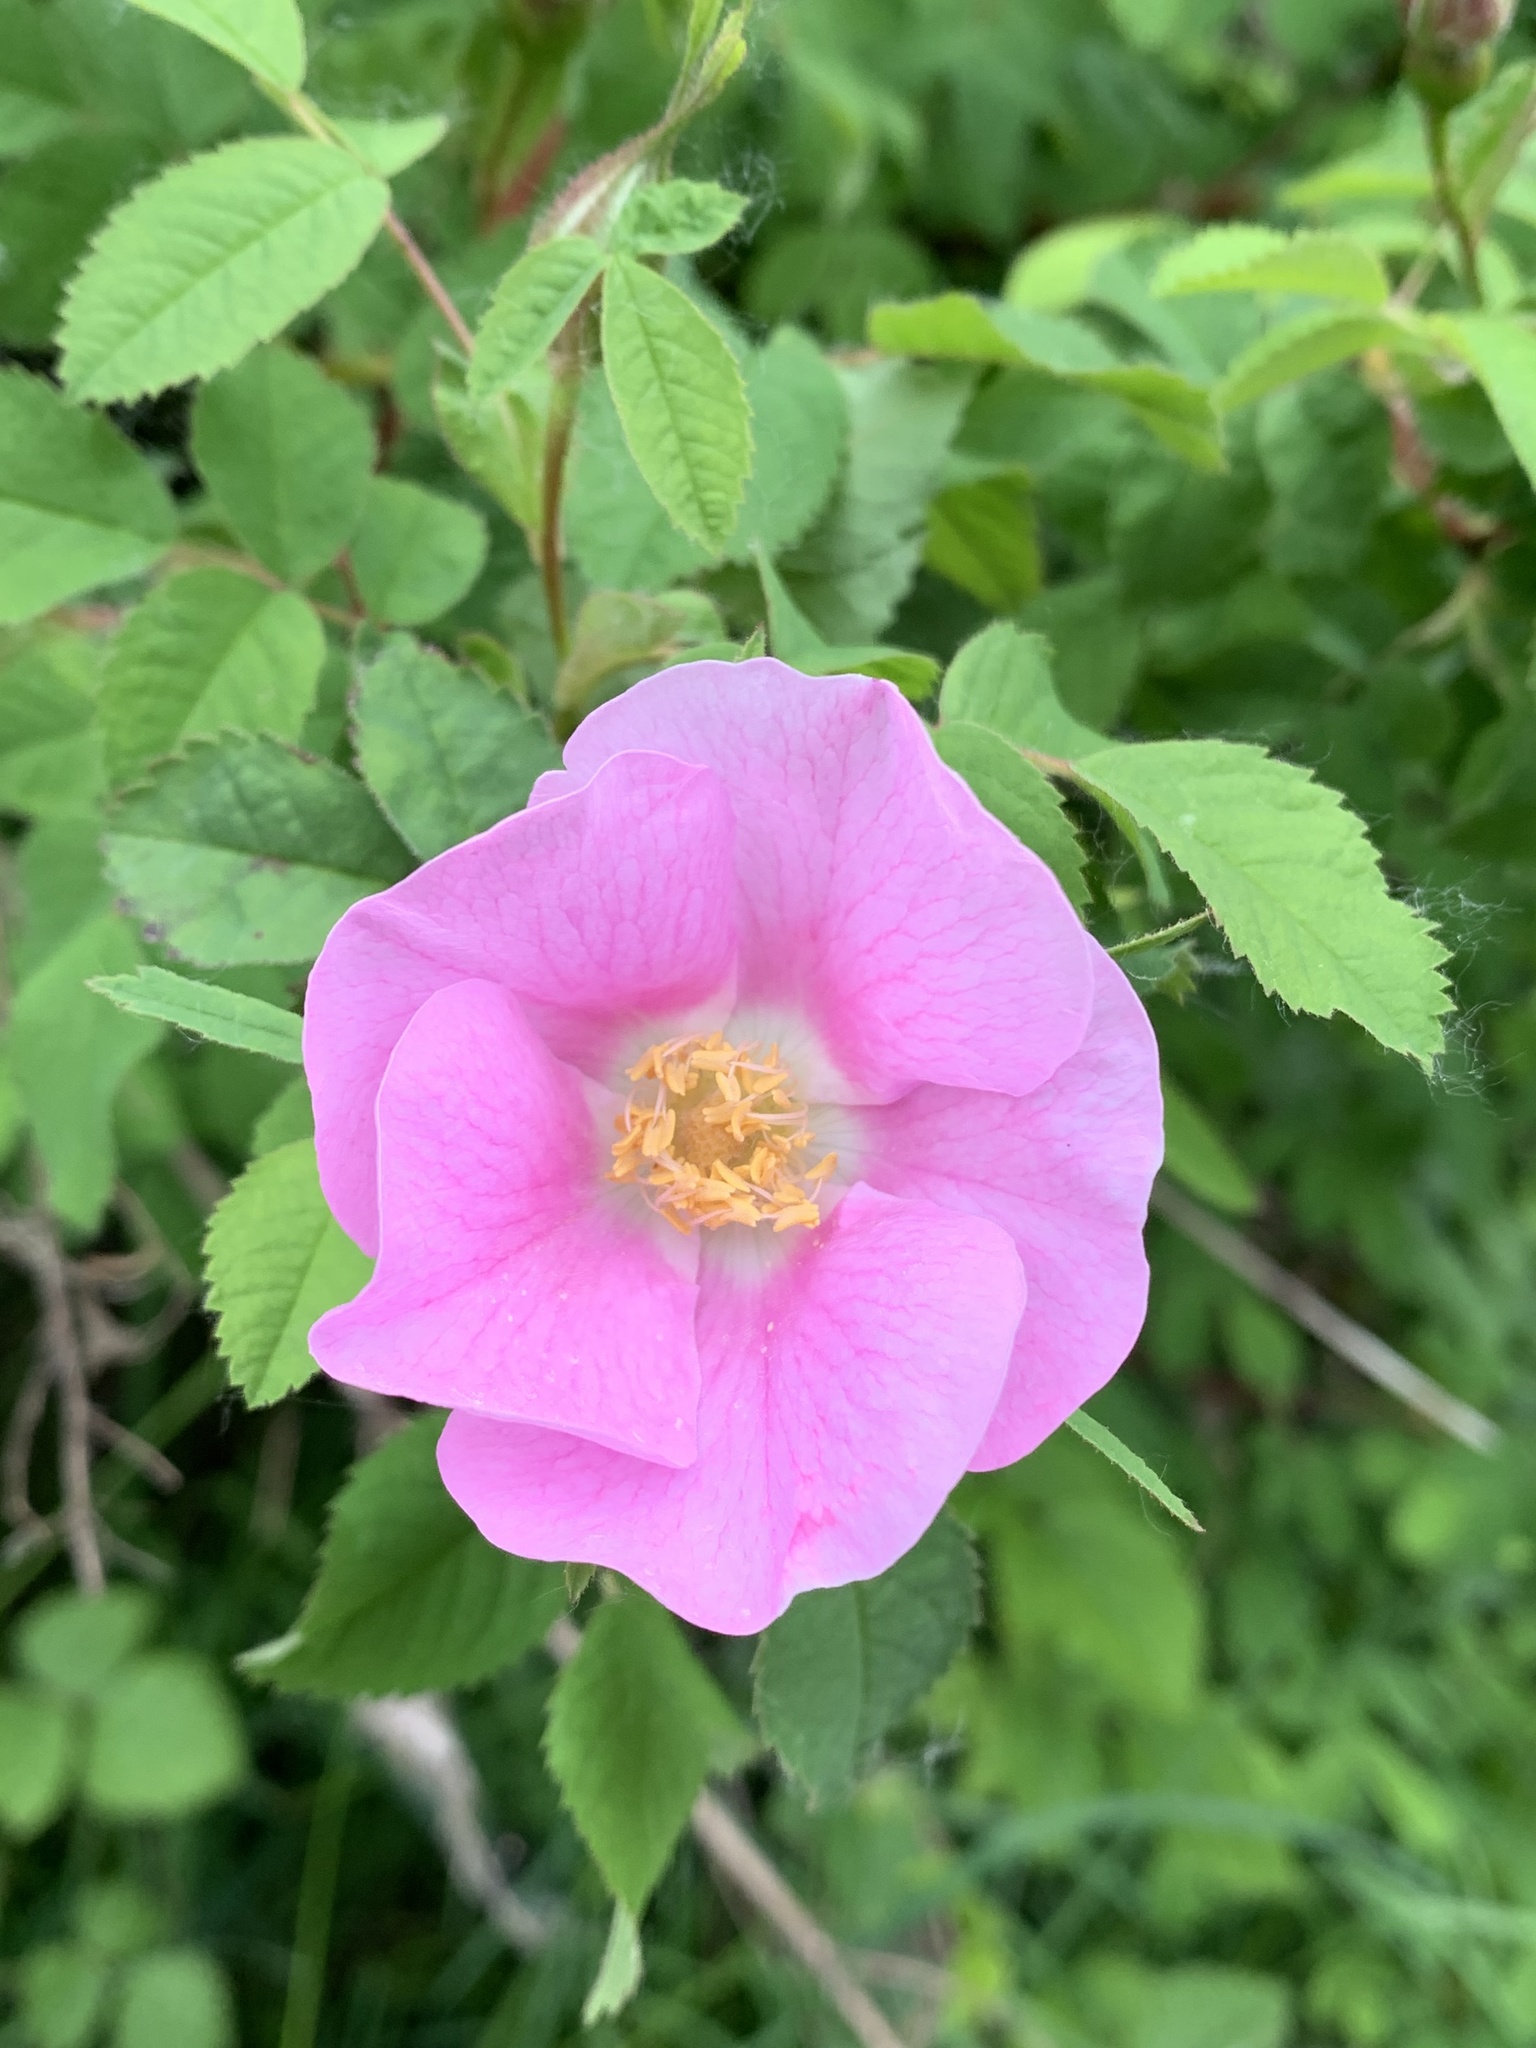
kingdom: Plantae
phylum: Tracheophyta
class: Magnoliopsida
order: Rosales
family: Rosaceae
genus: Rosa
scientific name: Rosa nutkana
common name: Nootka rose
